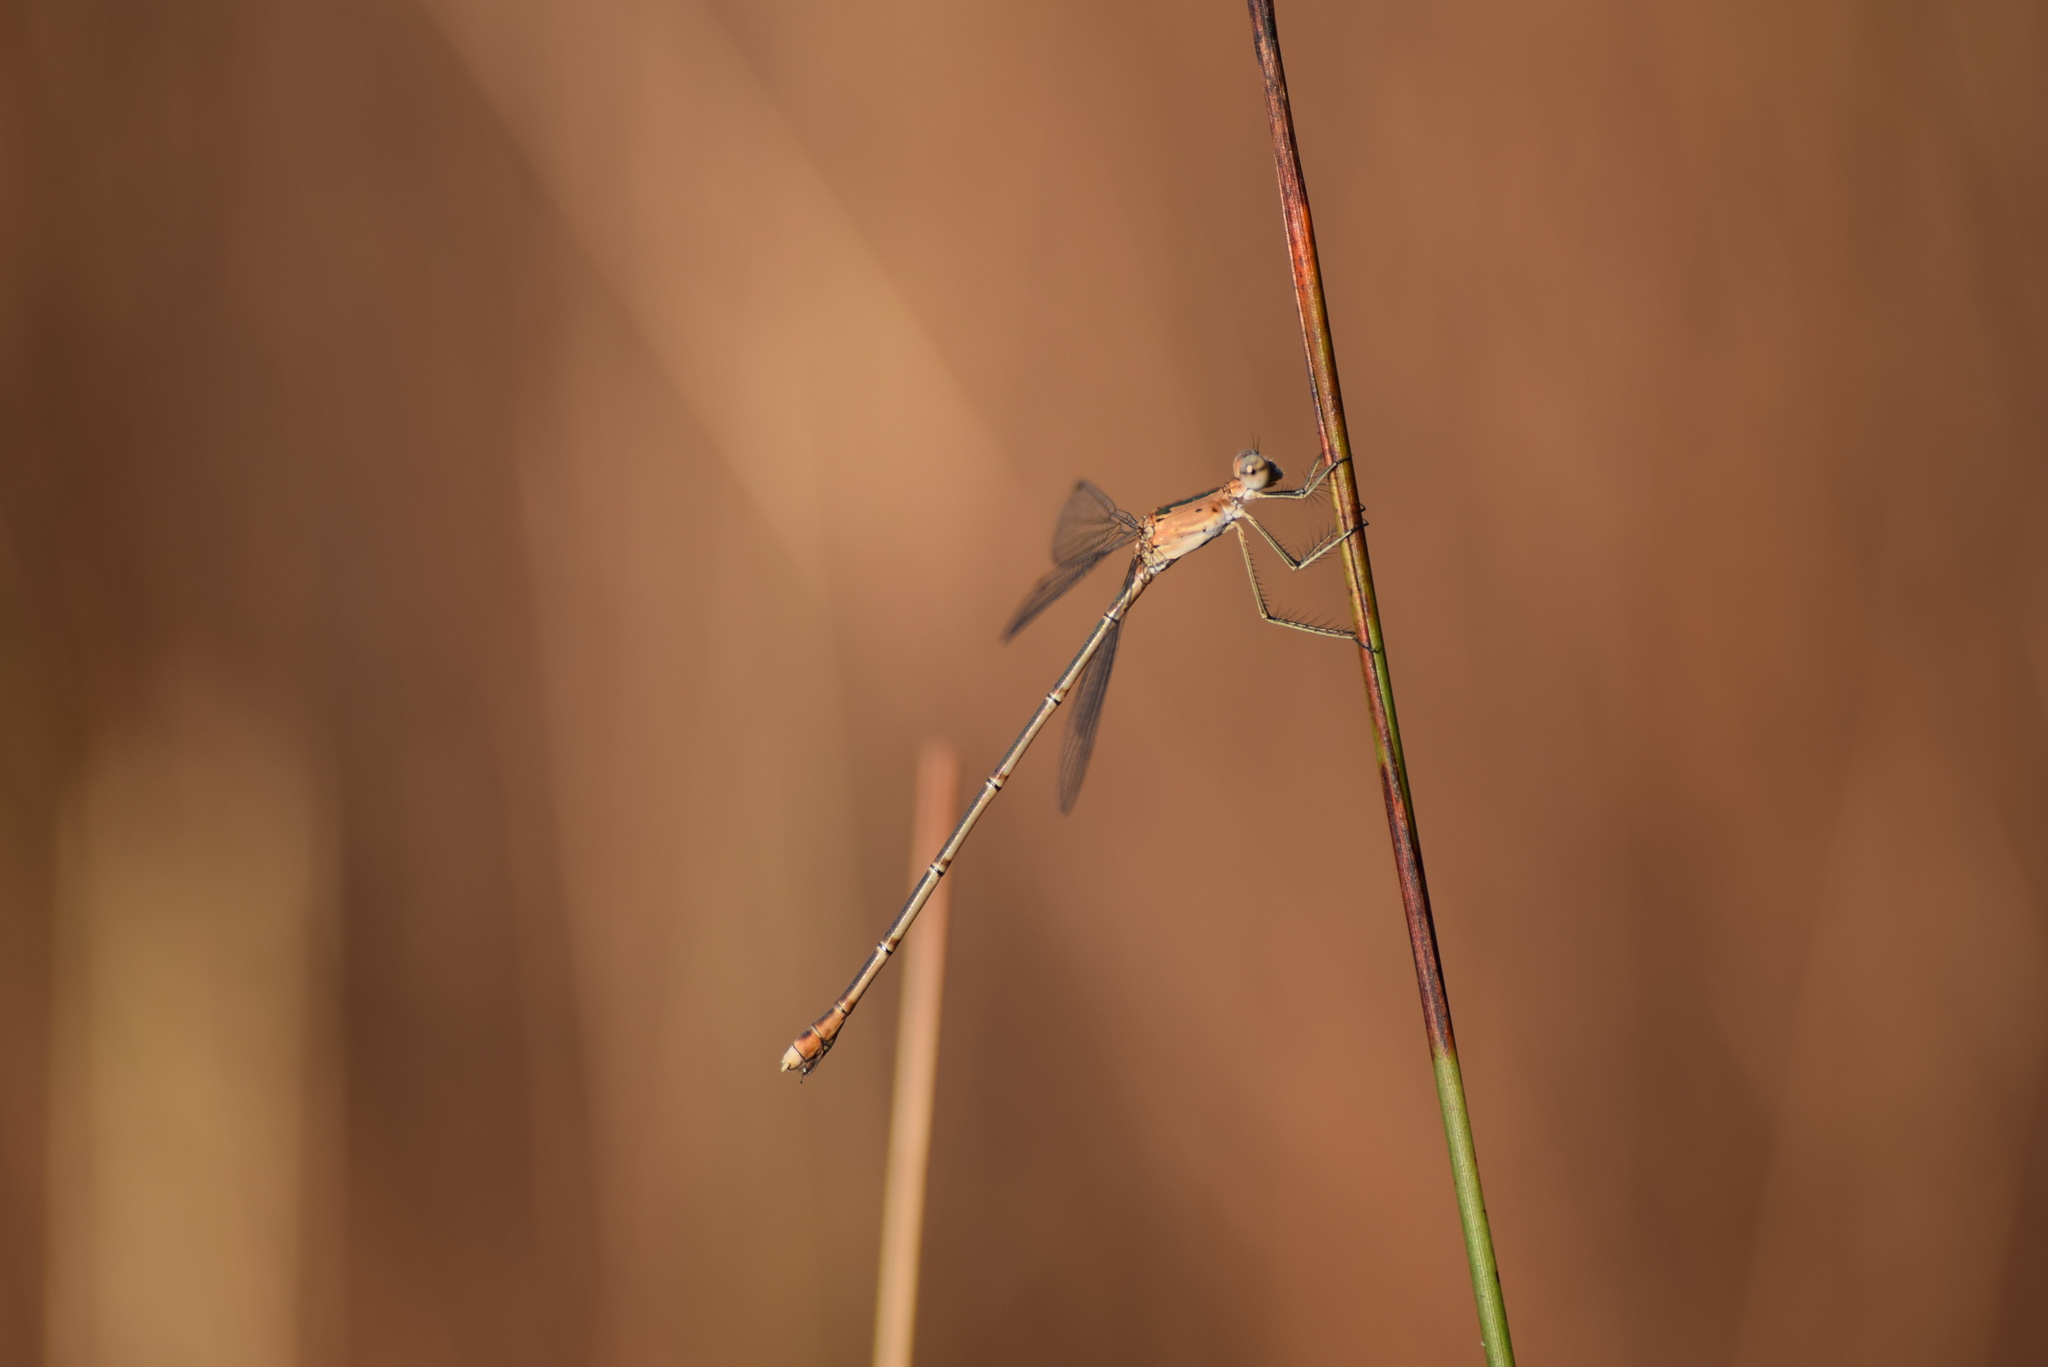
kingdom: Animalia
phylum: Arthropoda
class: Insecta
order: Odonata
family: Lestidae
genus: Lestes
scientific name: Lestes elatus
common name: Emerald spreadwing
